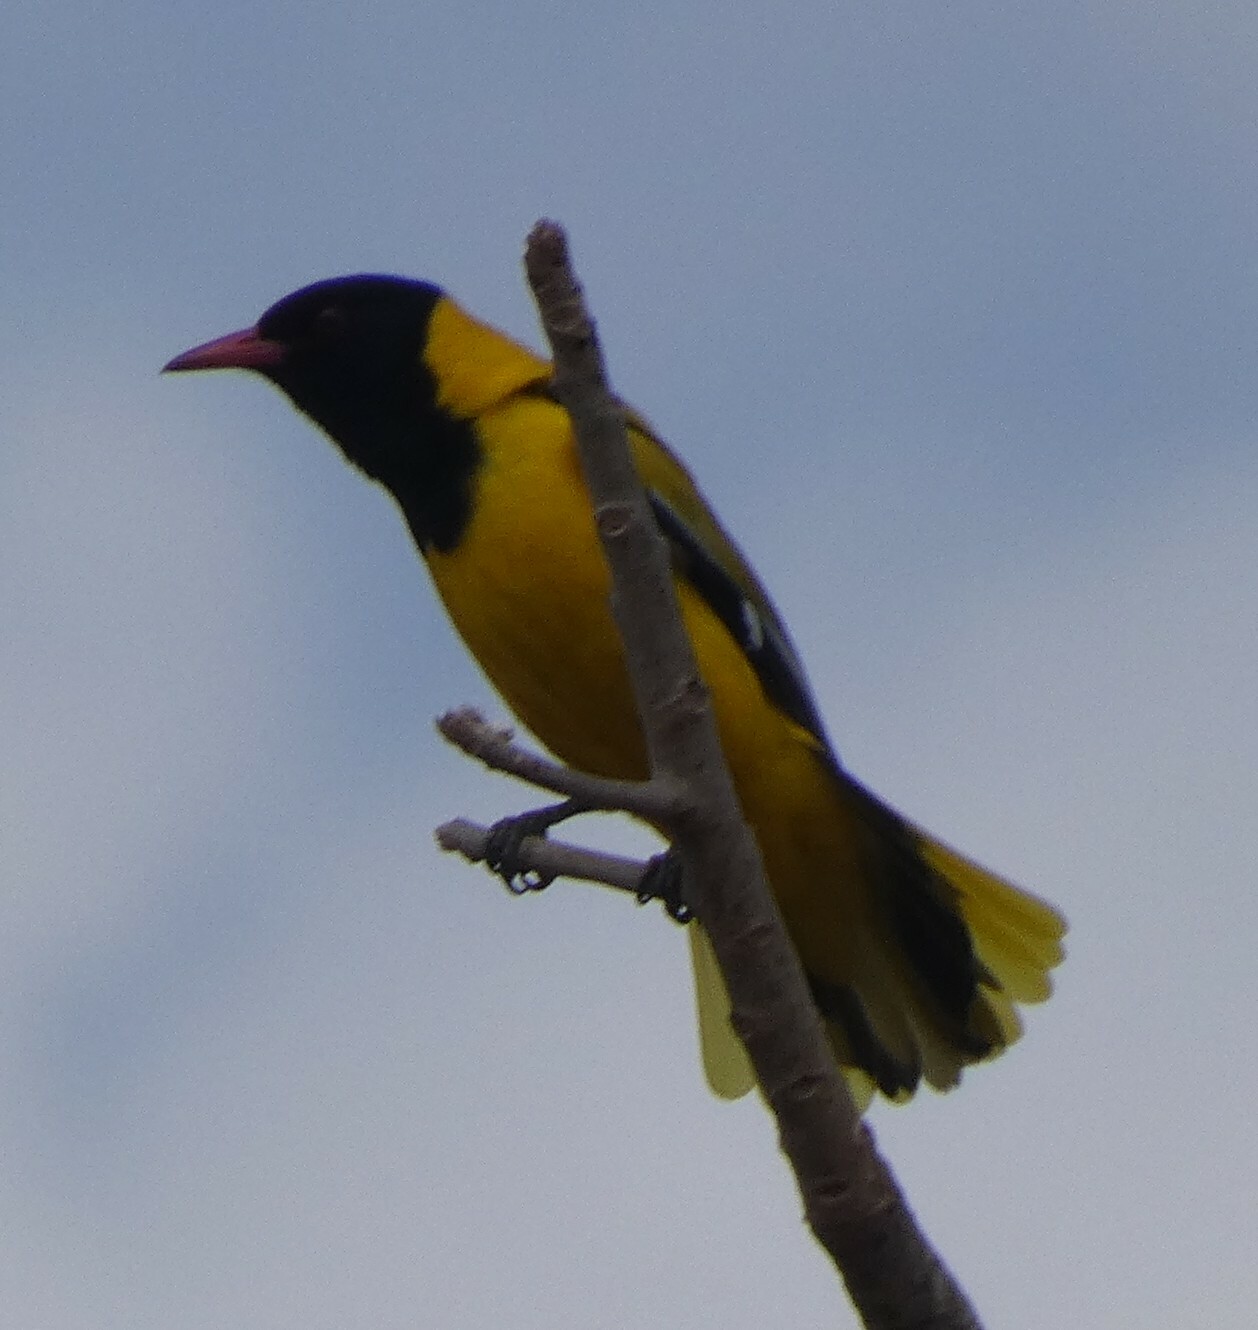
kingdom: Animalia
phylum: Chordata
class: Aves
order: Passeriformes
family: Oriolidae
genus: Oriolus
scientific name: Oriolus larvatus
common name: Black-headed oriole
